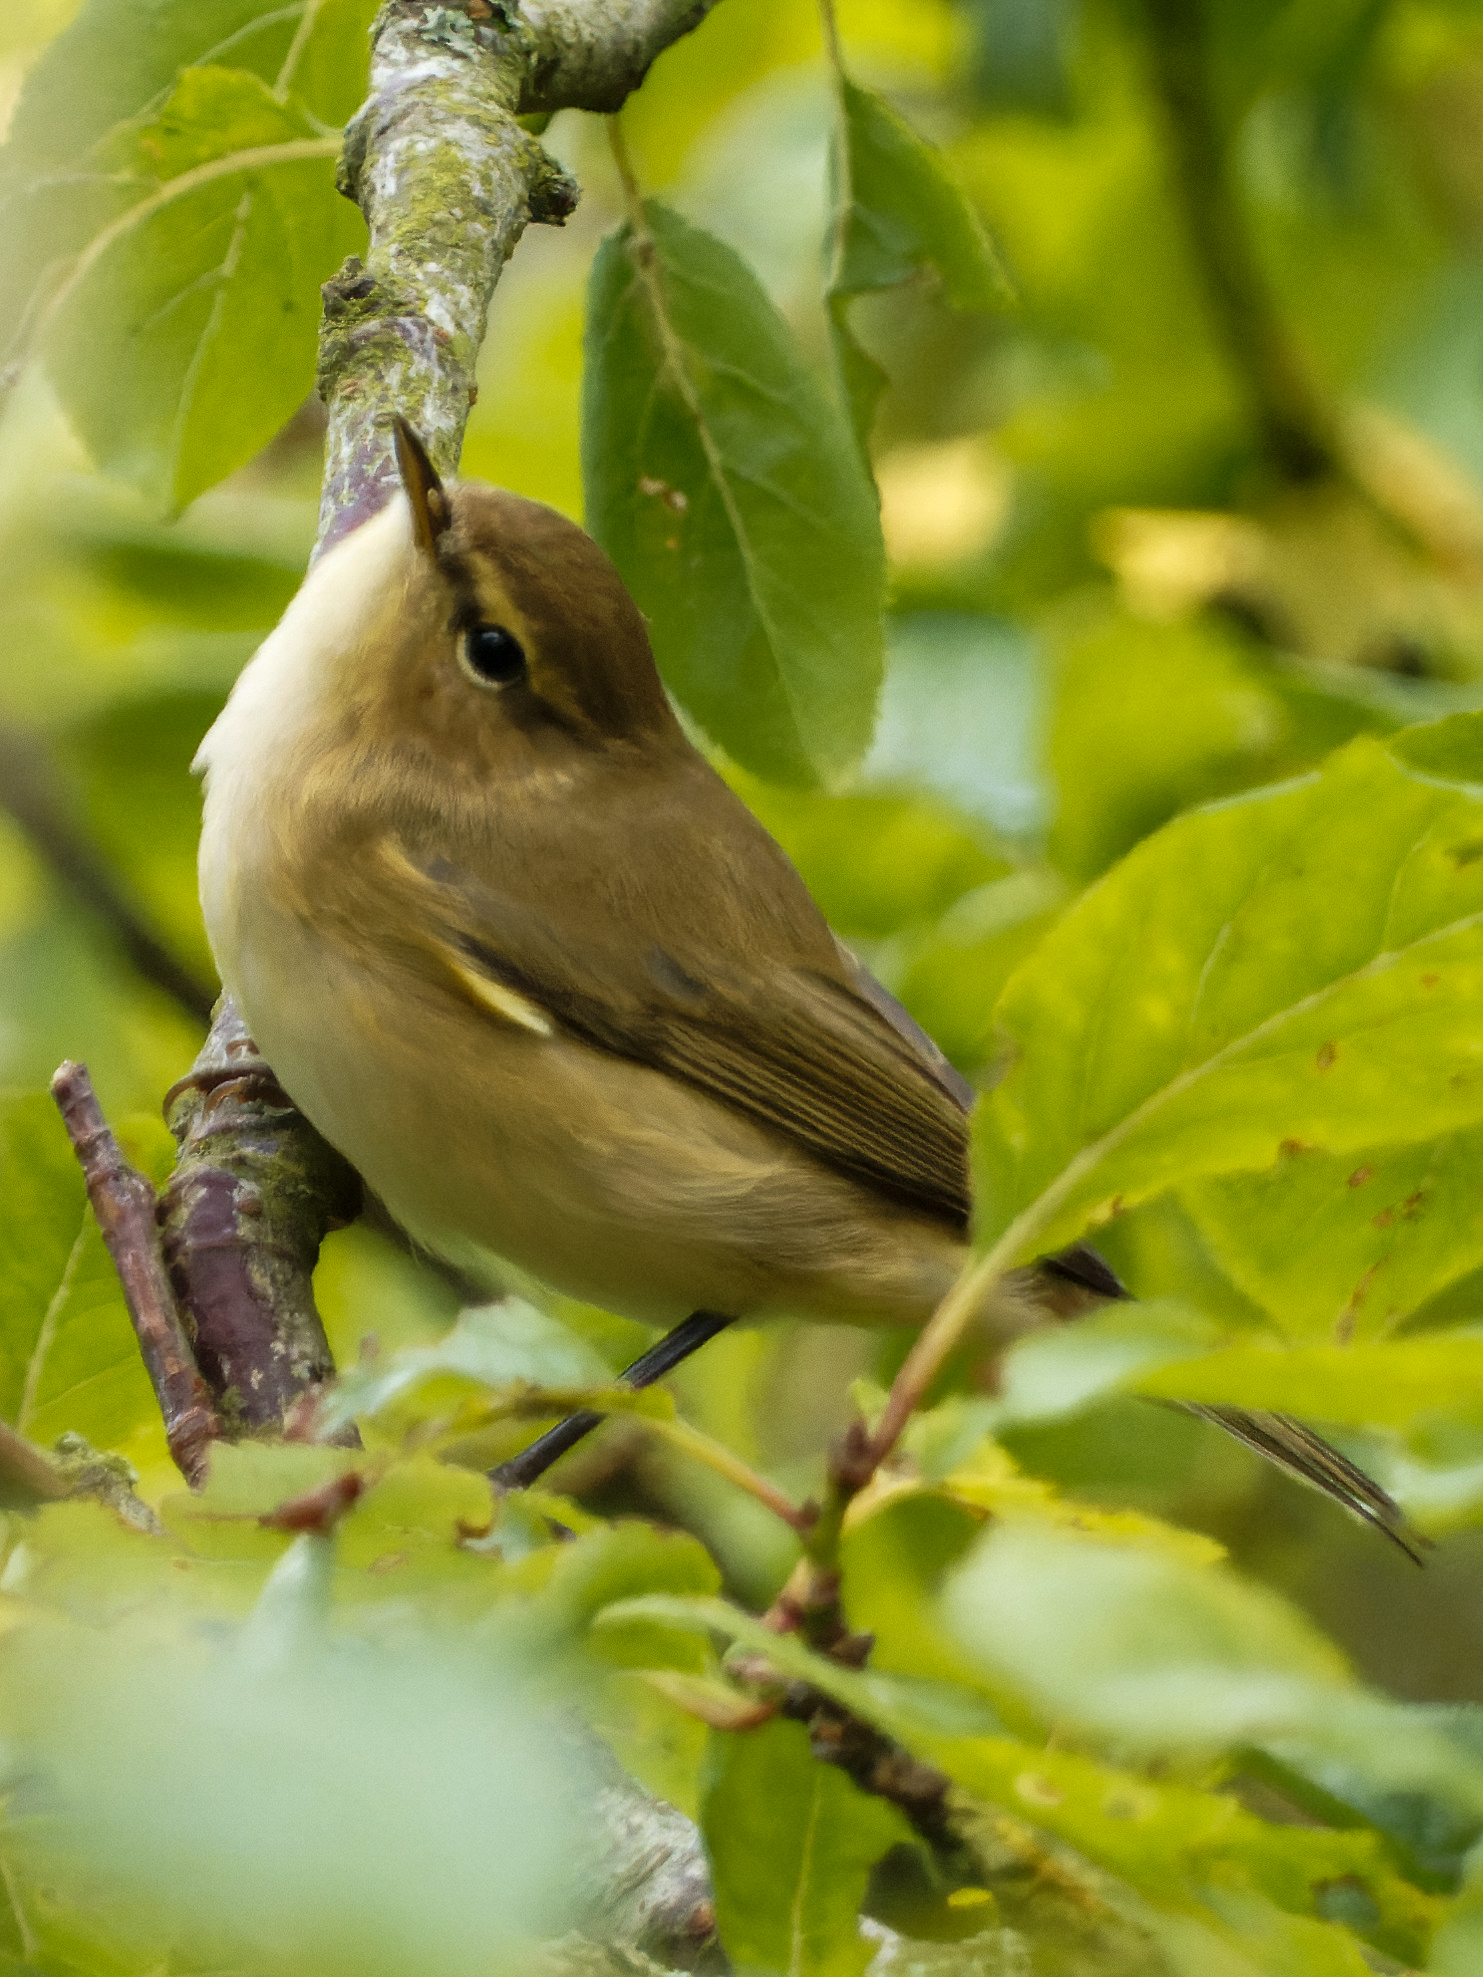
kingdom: Animalia
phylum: Chordata
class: Aves
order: Passeriformes
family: Phylloscopidae
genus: Phylloscopus
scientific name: Phylloscopus collybita
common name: Common chiffchaff
